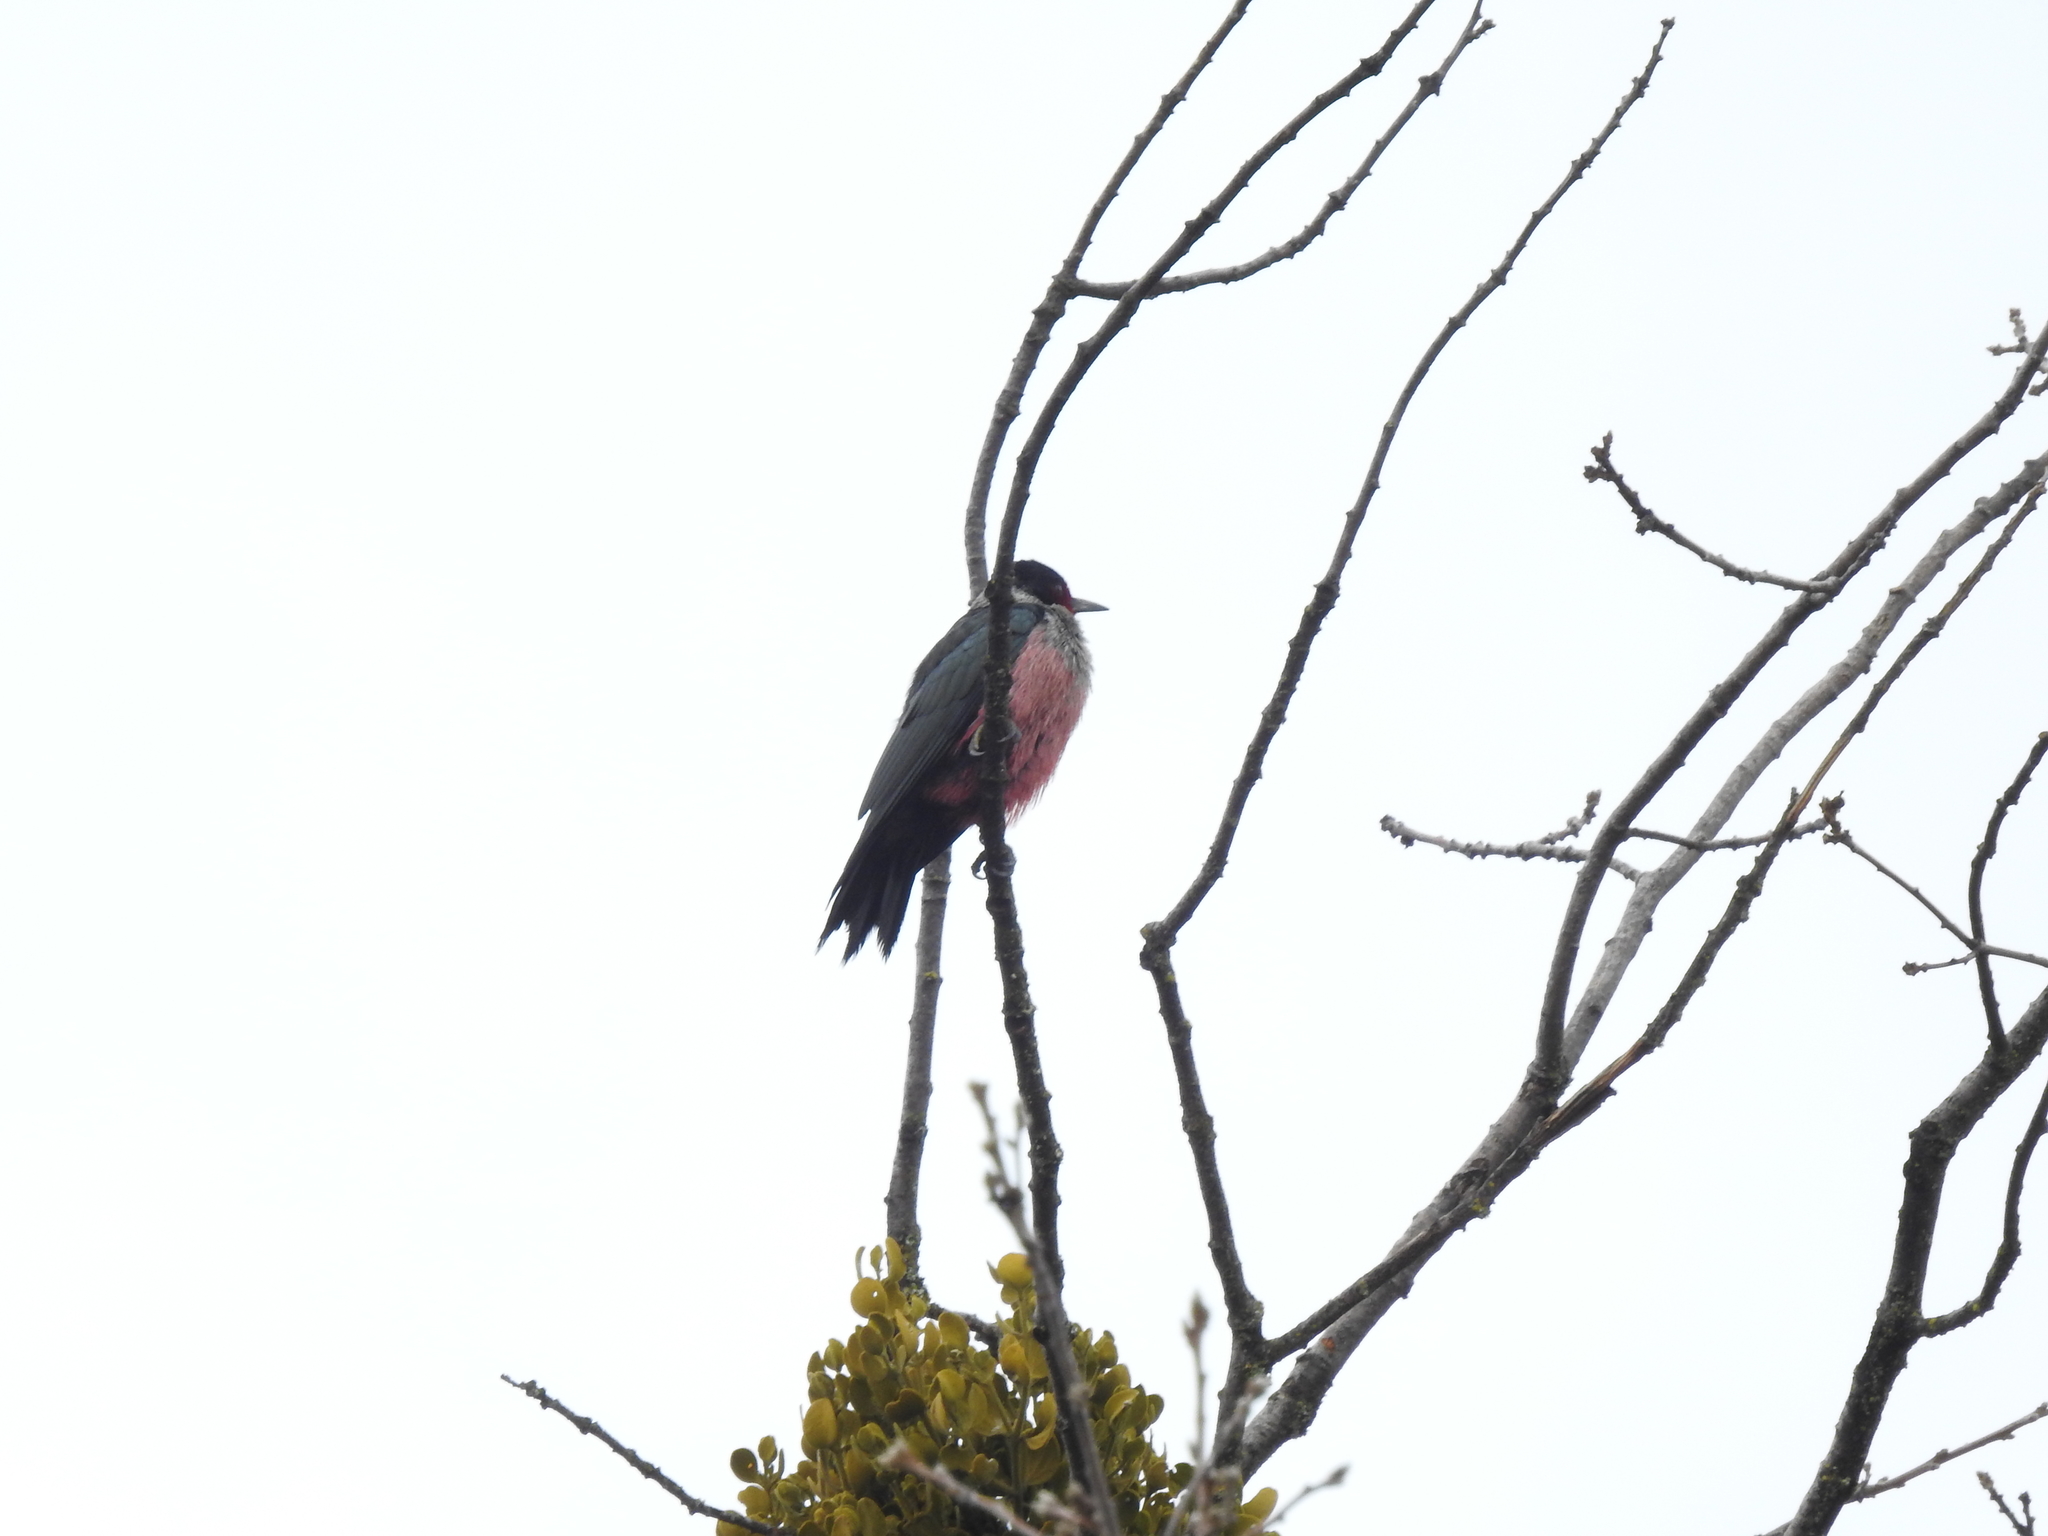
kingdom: Animalia
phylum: Chordata
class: Aves
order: Piciformes
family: Picidae
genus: Melanerpes
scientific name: Melanerpes lewis
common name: Lewis's woodpecker
